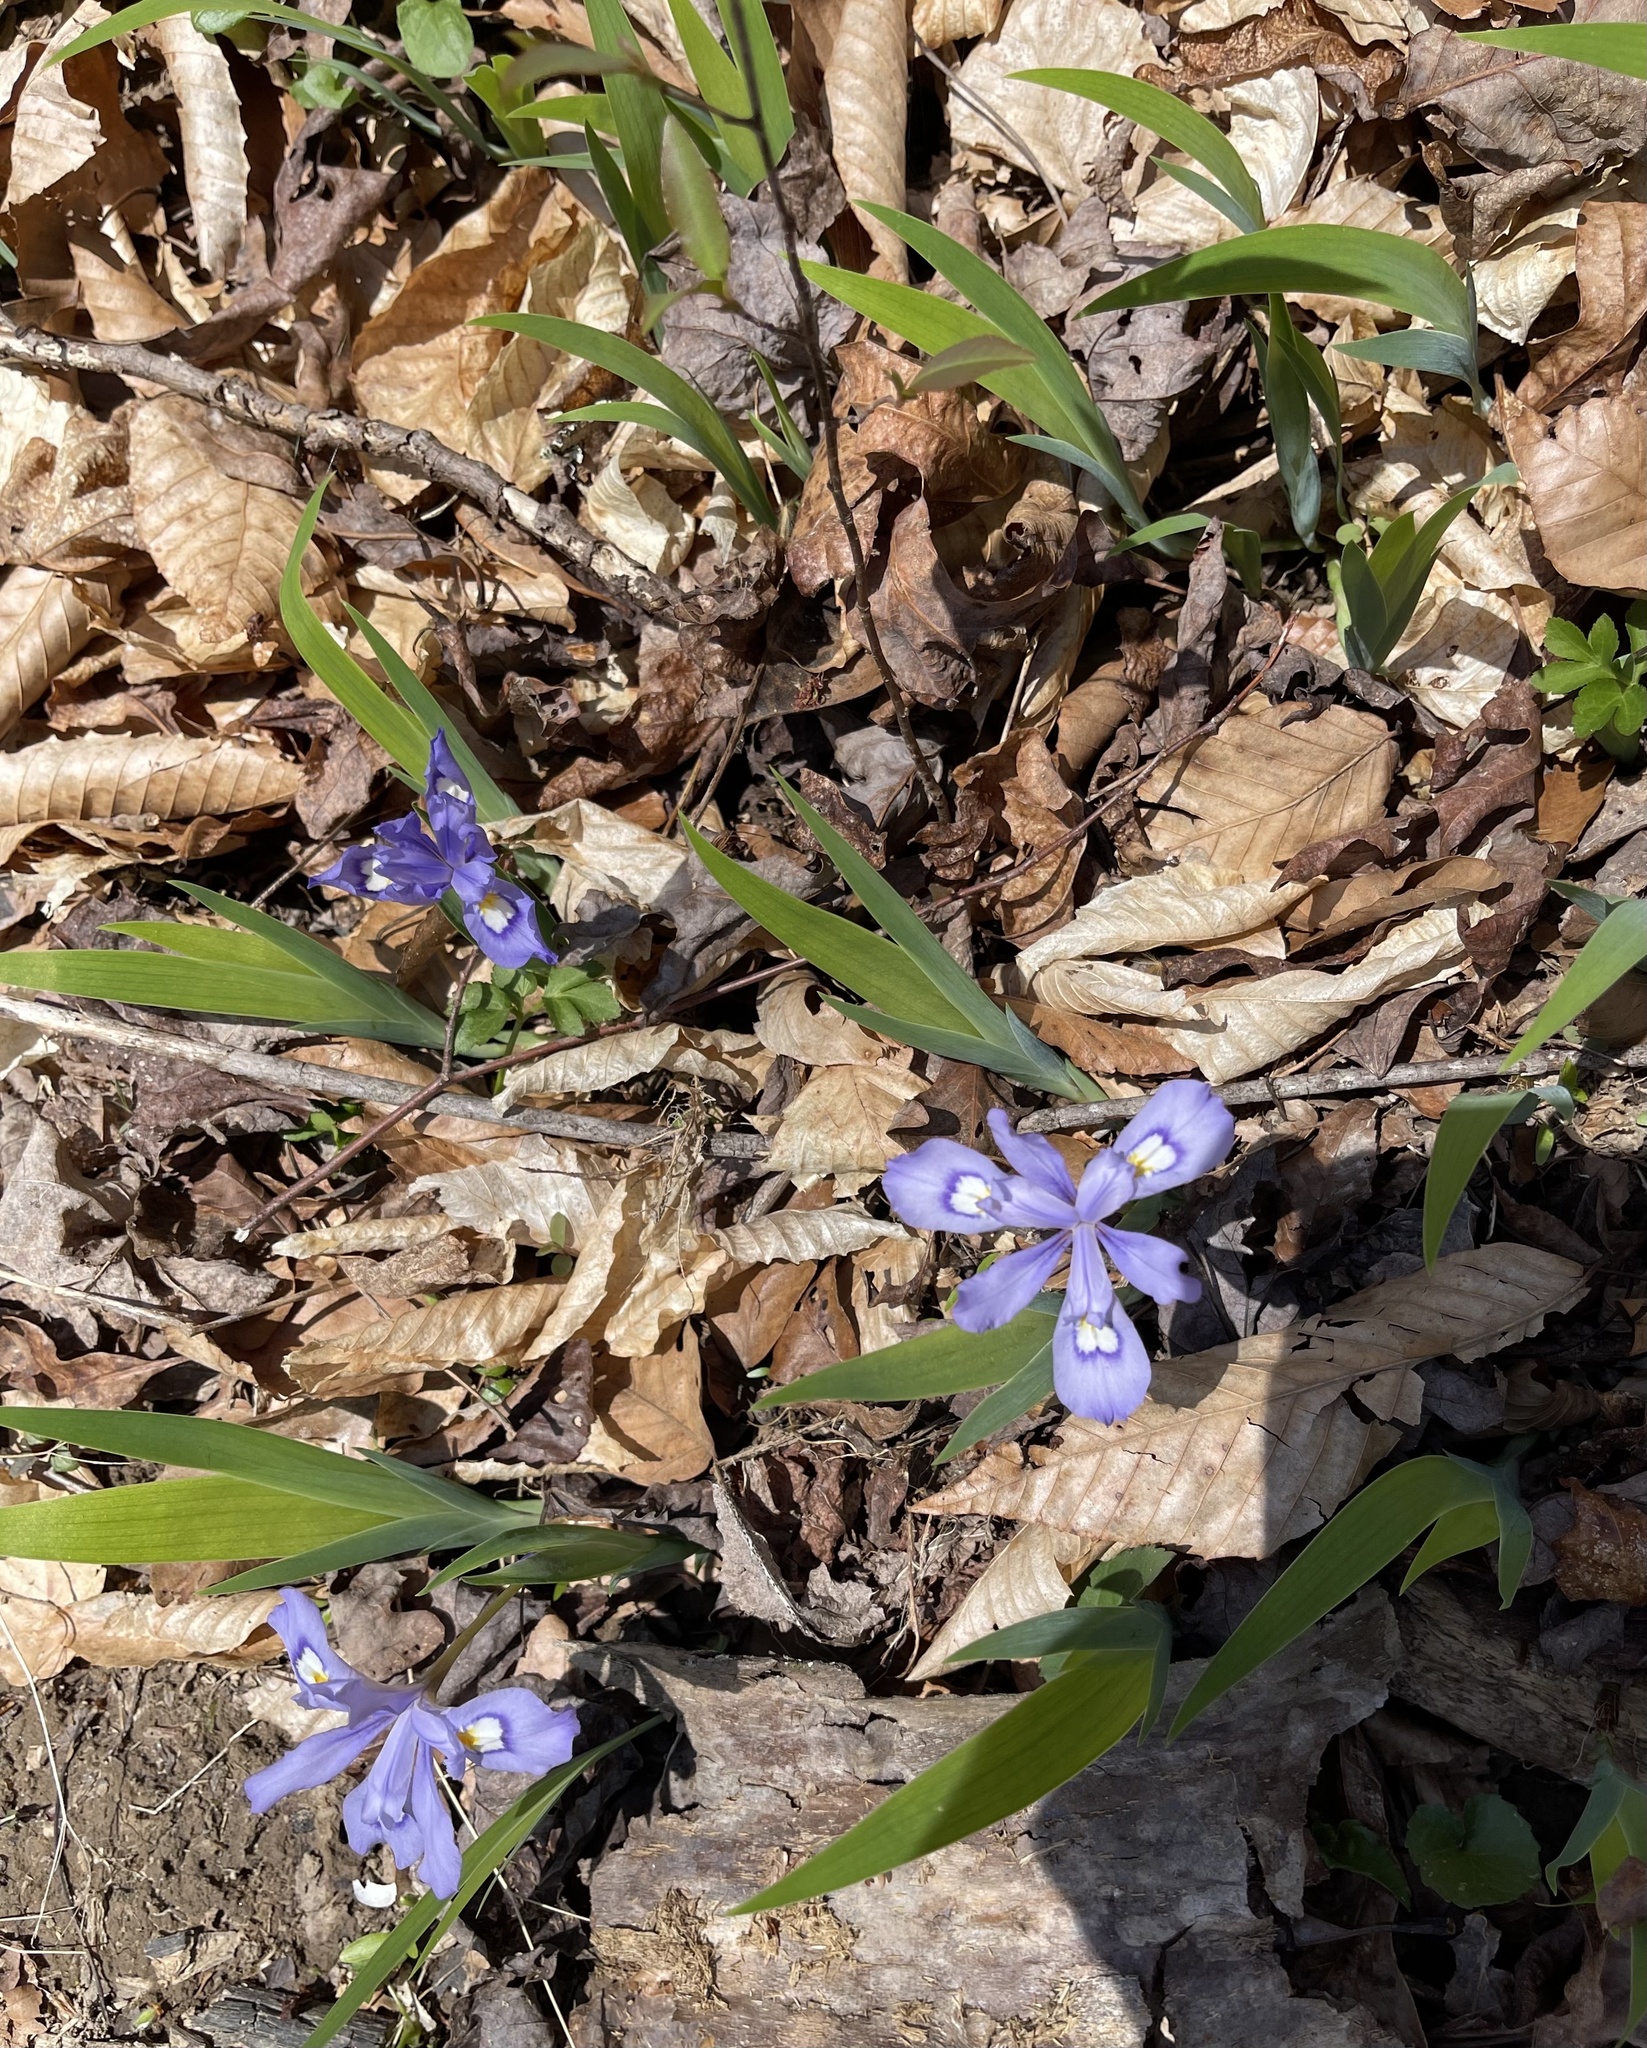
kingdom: Plantae
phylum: Tracheophyta
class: Liliopsida
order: Asparagales
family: Iridaceae
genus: Iris
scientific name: Iris cristata
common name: Crested iris
